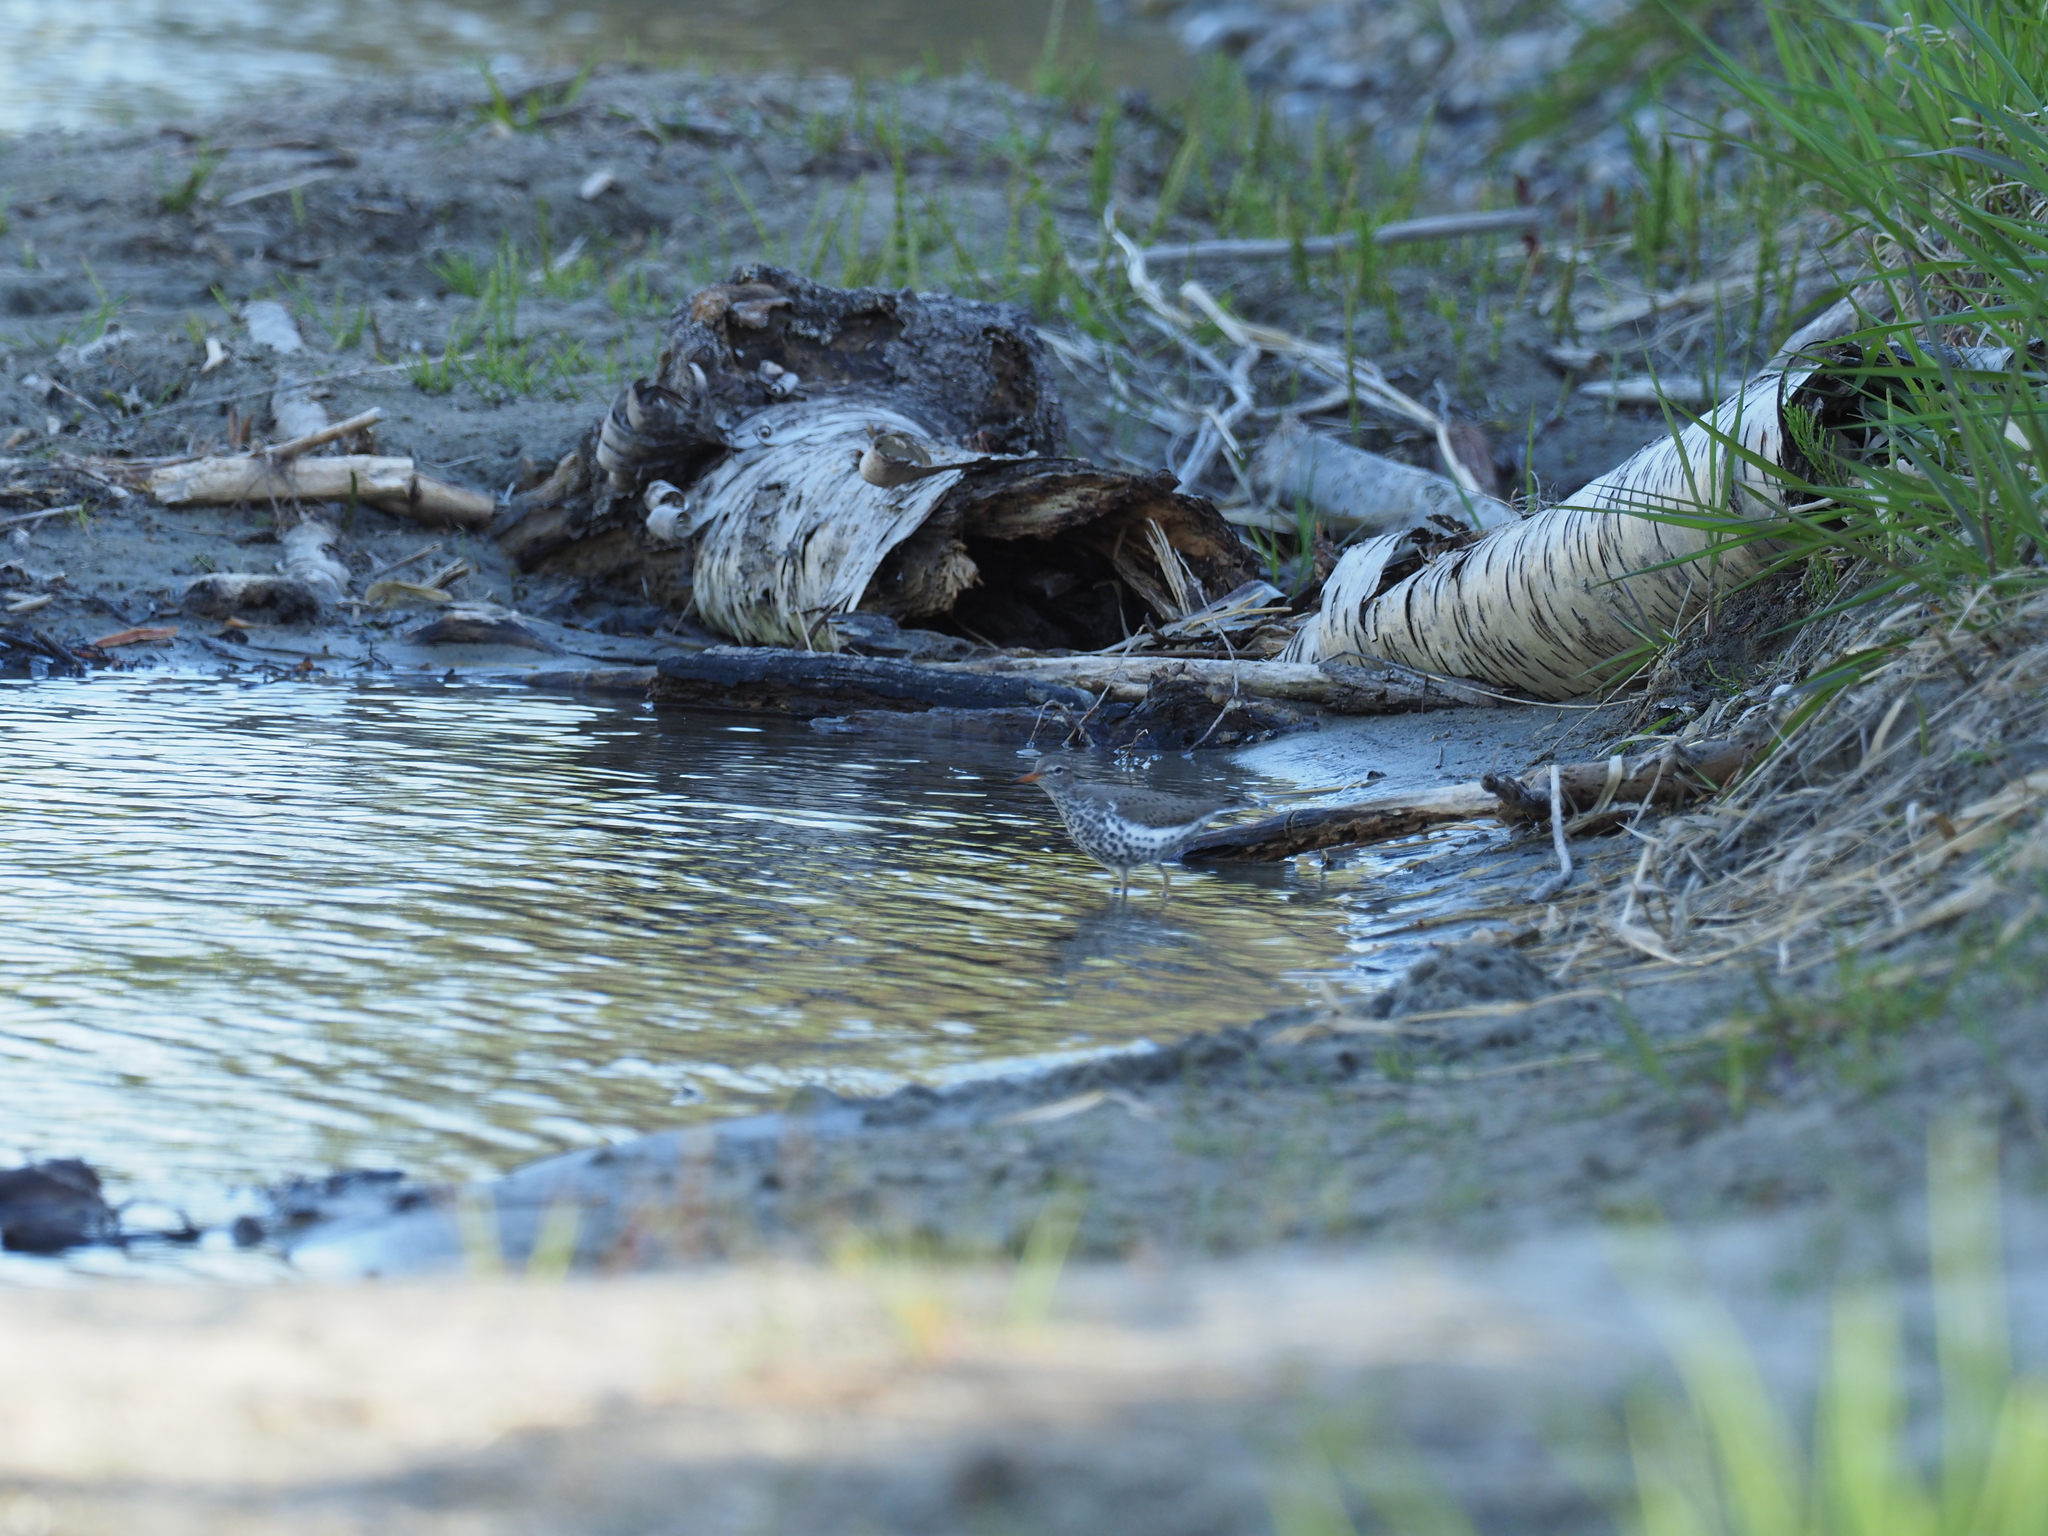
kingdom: Animalia
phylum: Chordata
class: Aves
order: Charadriiformes
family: Scolopacidae
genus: Actitis
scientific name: Actitis macularius
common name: Spotted sandpiper
